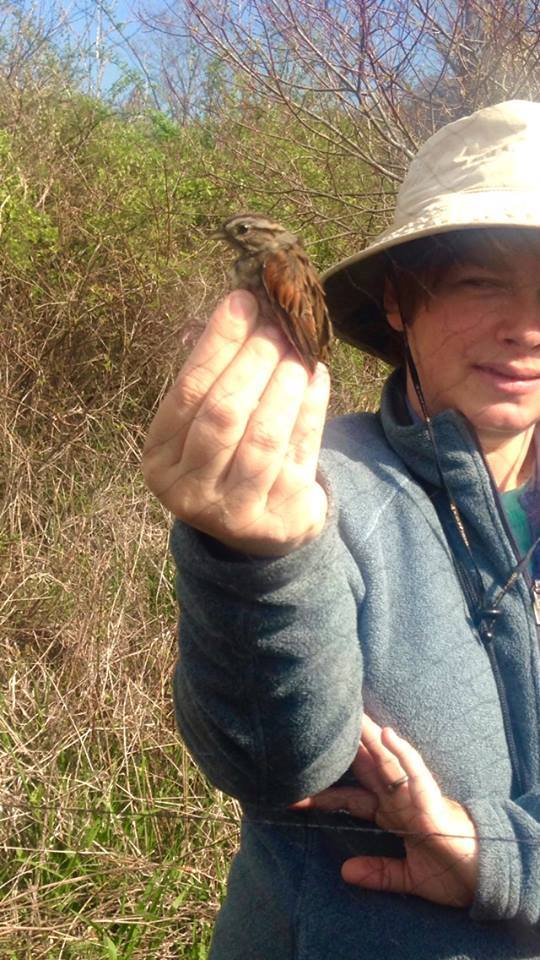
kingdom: Animalia
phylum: Chordata
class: Aves
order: Passeriformes
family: Passerellidae
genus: Melospiza
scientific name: Melospiza georgiana
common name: Swamp sparrow
